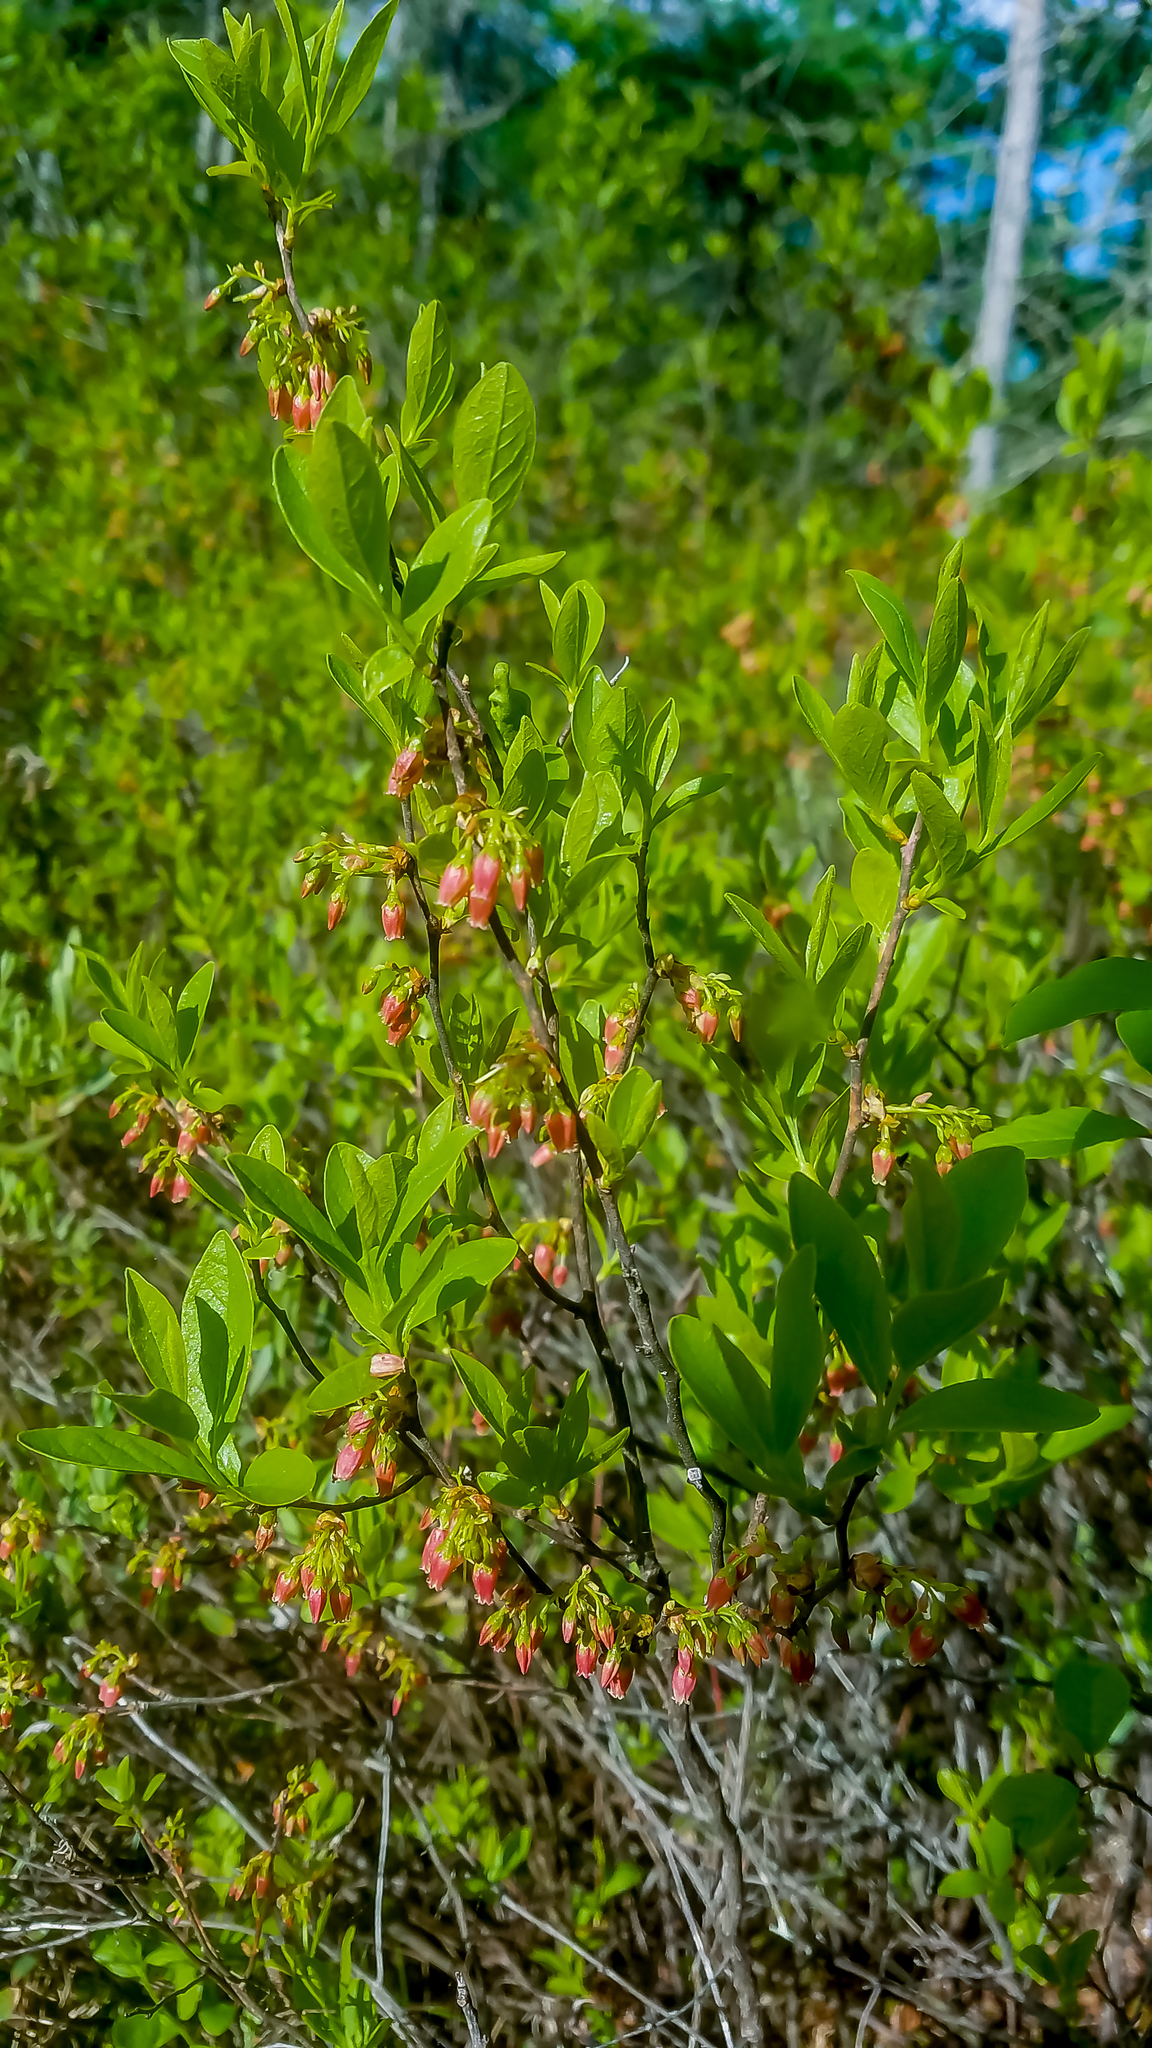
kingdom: Plantae
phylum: Tracheophyta
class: Magnoliopsida
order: Ericales
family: Ericaceae
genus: Gaylussacia
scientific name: Gaylussacia baccata
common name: Black huckleberry
